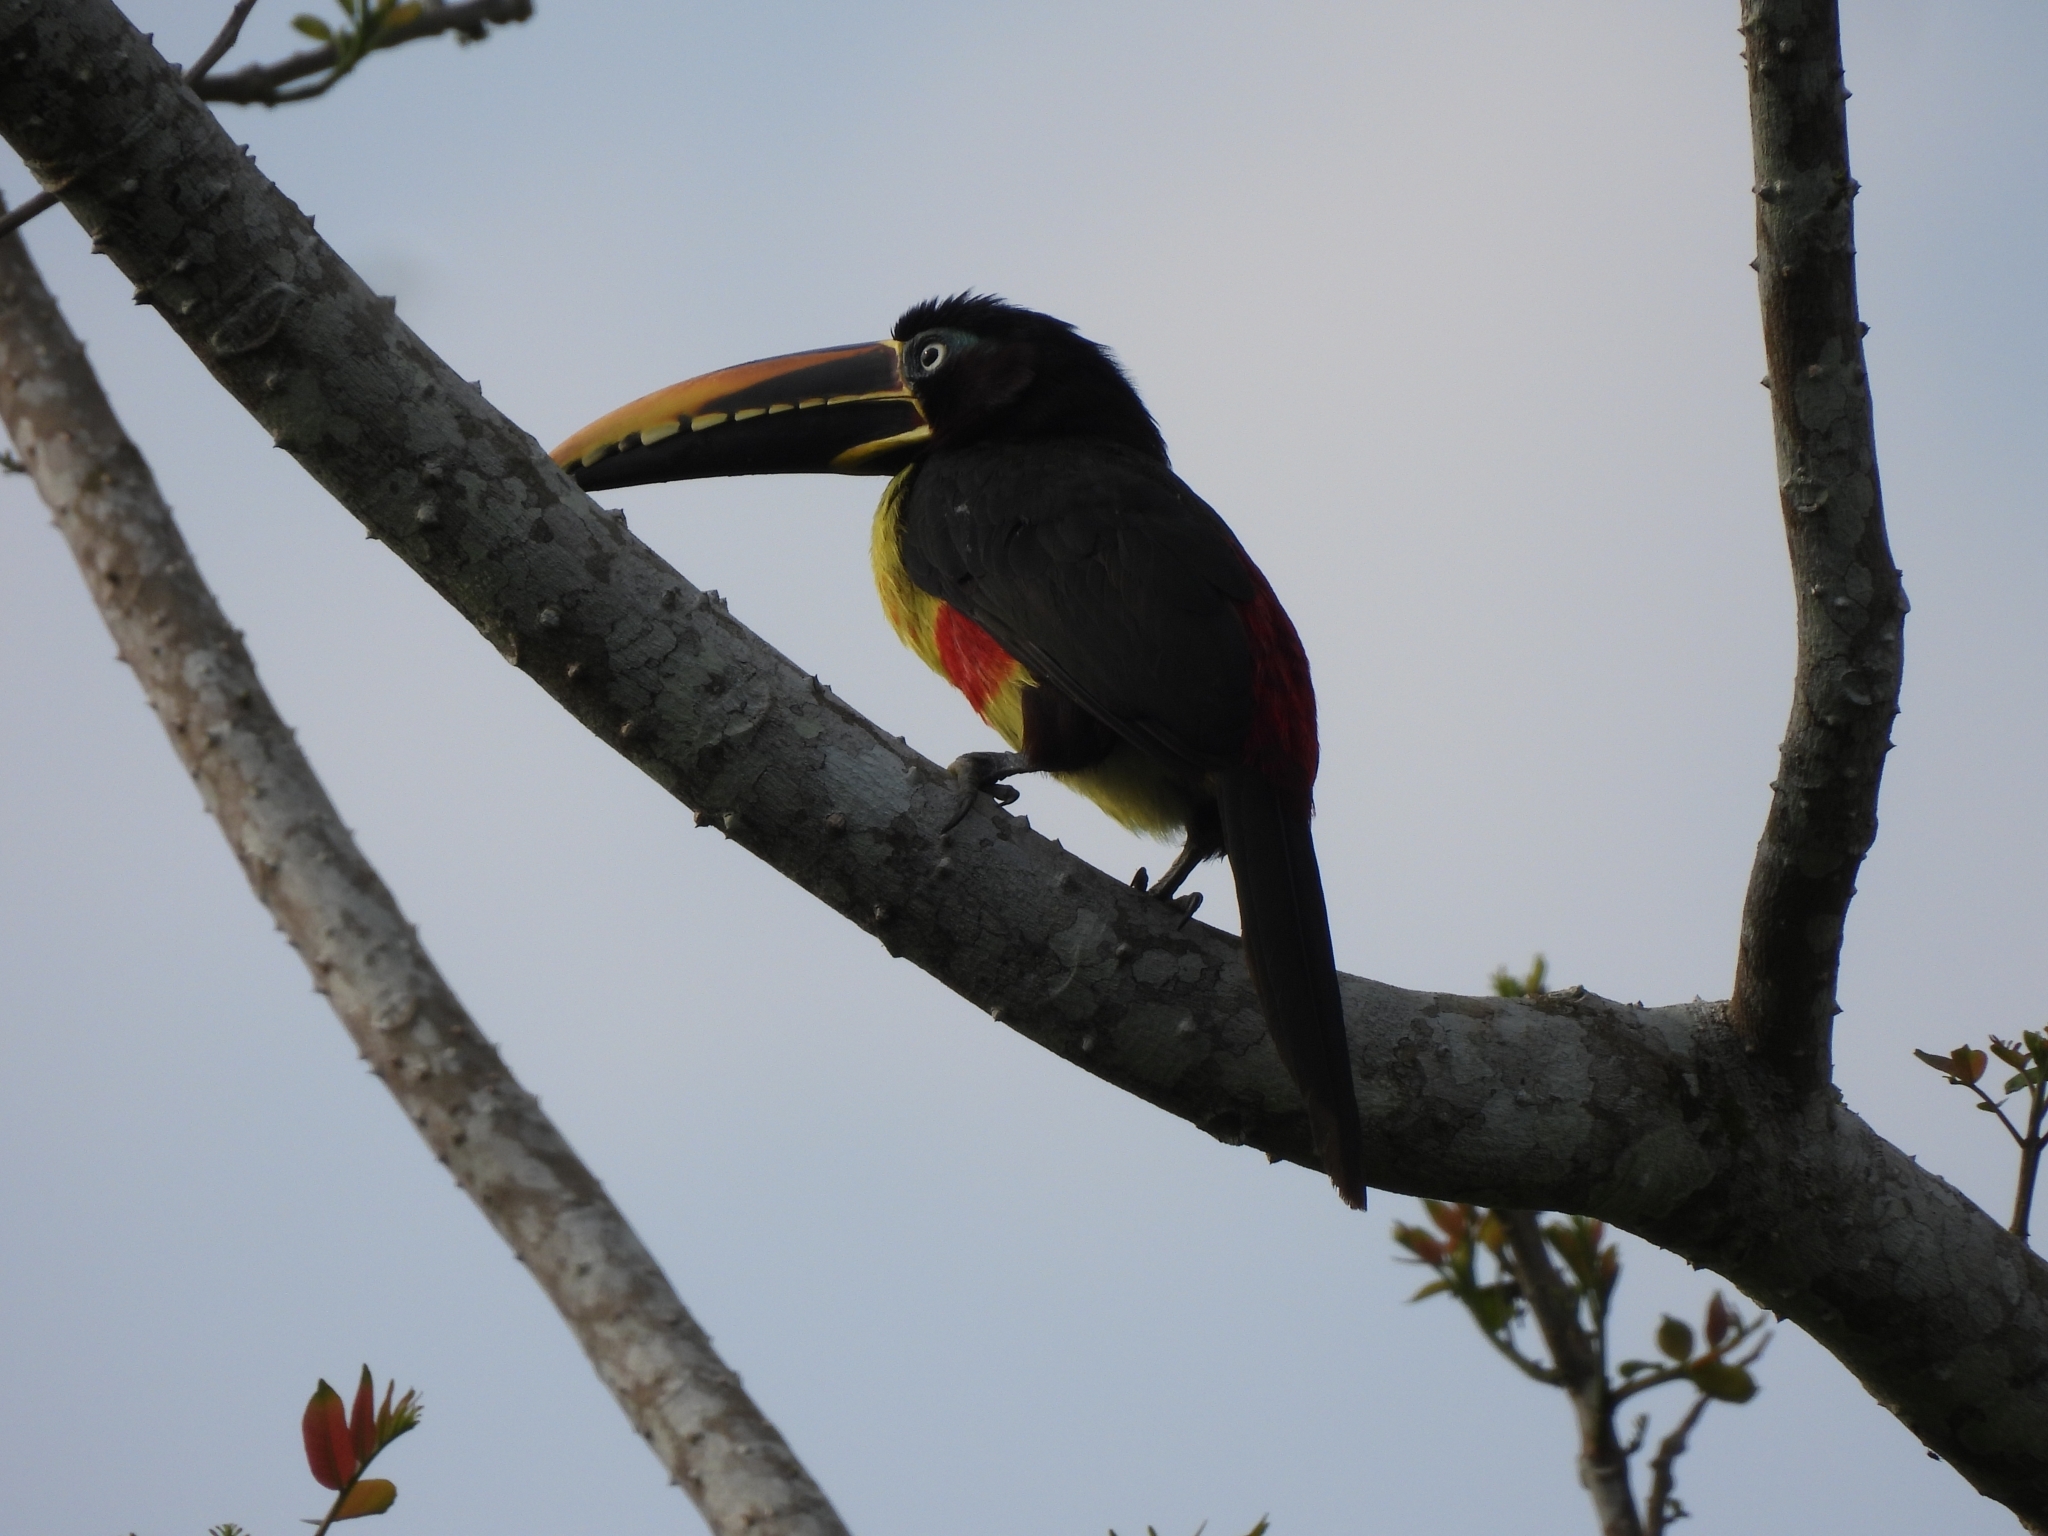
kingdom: Animalia
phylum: Chordata
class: Aves
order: Piciformes
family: Ramphastidae
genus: Pteroglossus
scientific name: Pteroglossus castanotis
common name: Chestnut-eared aracari
